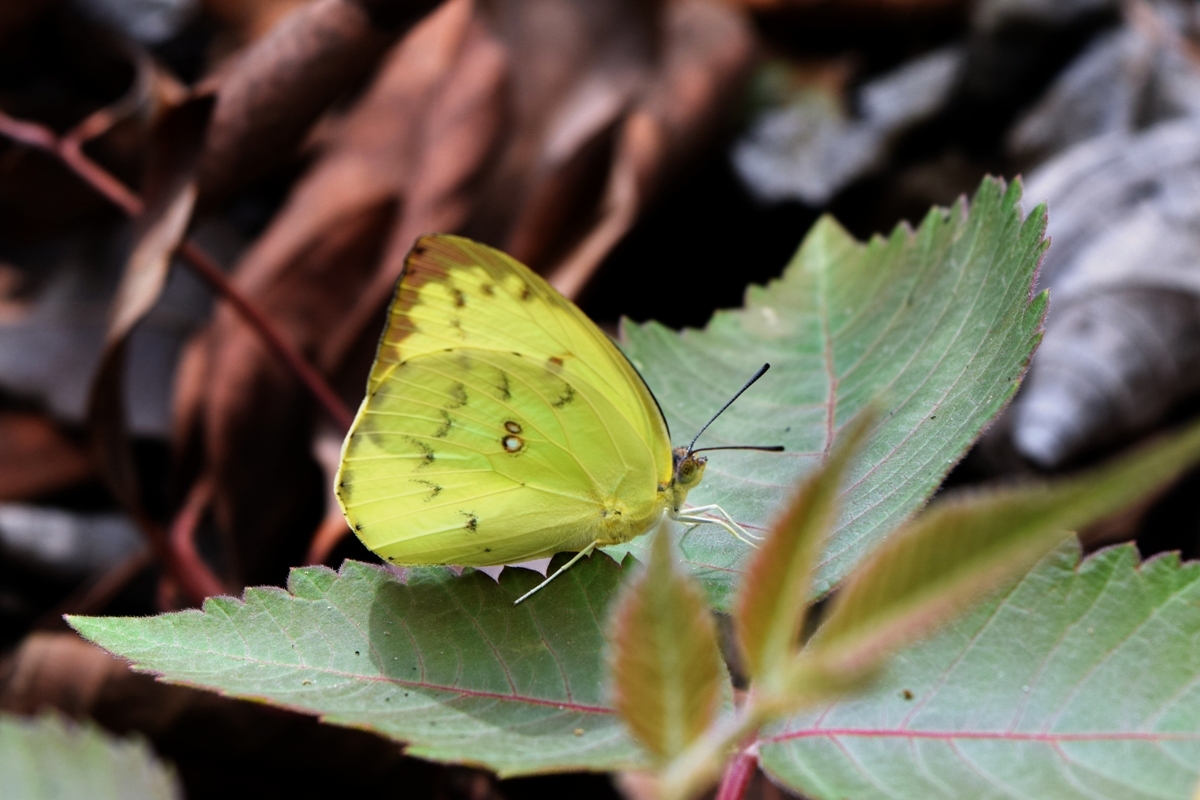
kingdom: Animalia
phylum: Arthropoda
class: Insecta
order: Lepidoptera
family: Pieridae
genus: Catopsilia
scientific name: Catopsilia pomona
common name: Common emigrant
